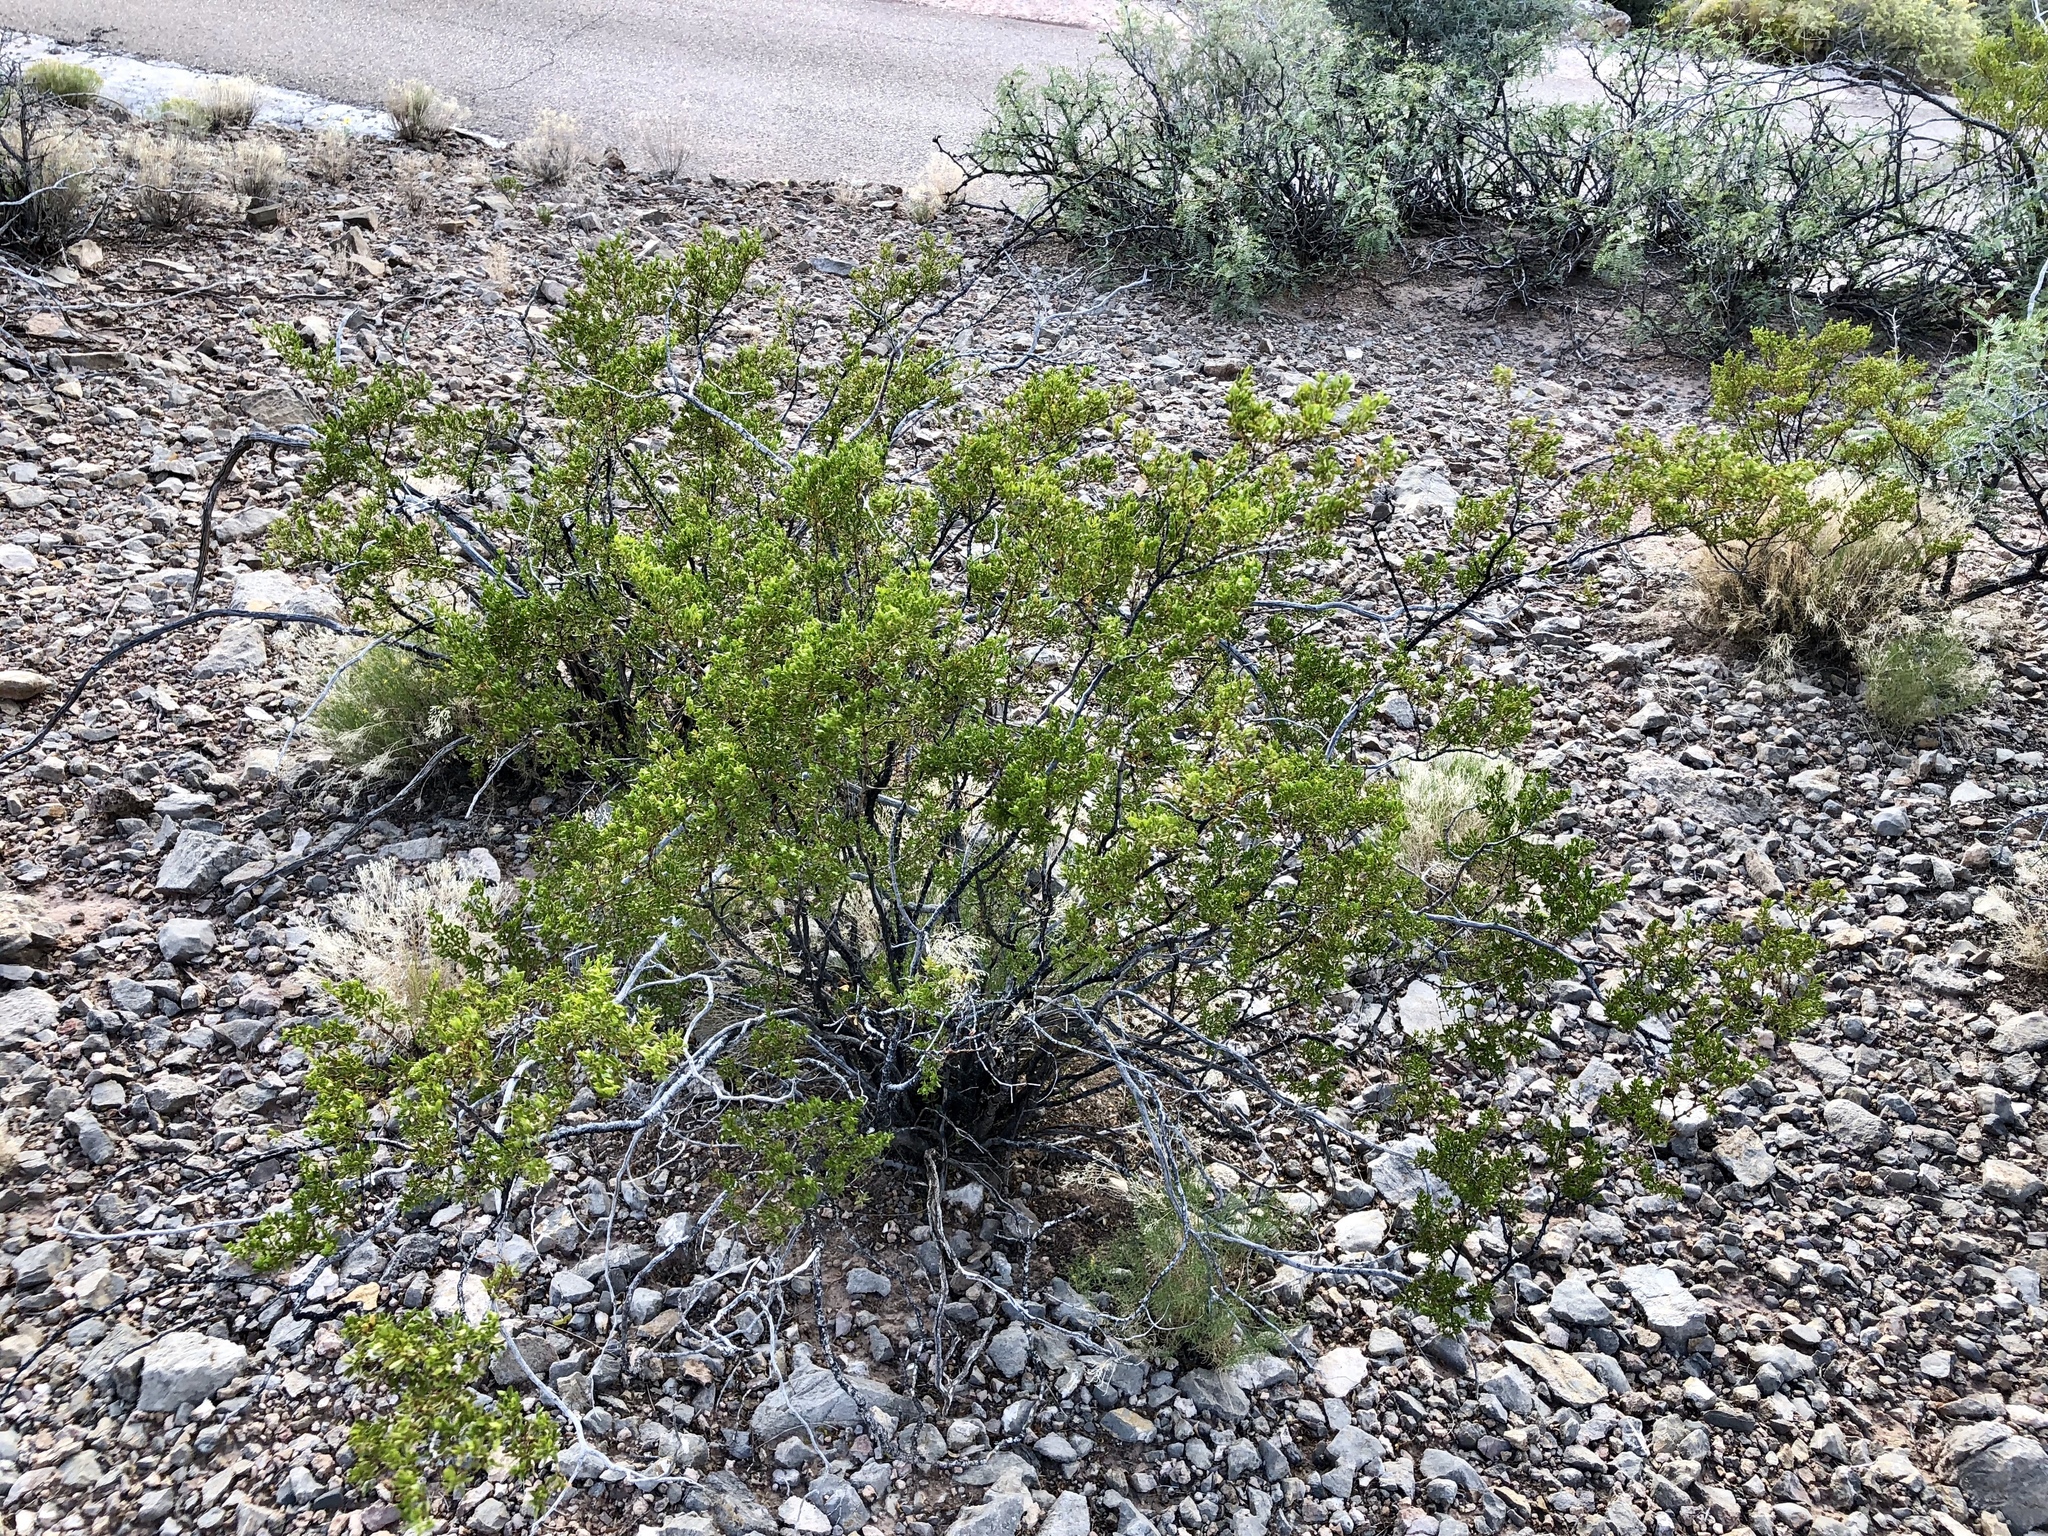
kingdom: Plantae
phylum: Tracheophyta
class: Magnoliopsida
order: Zygophyllales
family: Zygophyllaceae
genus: Larrea
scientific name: Larrea tridentata
